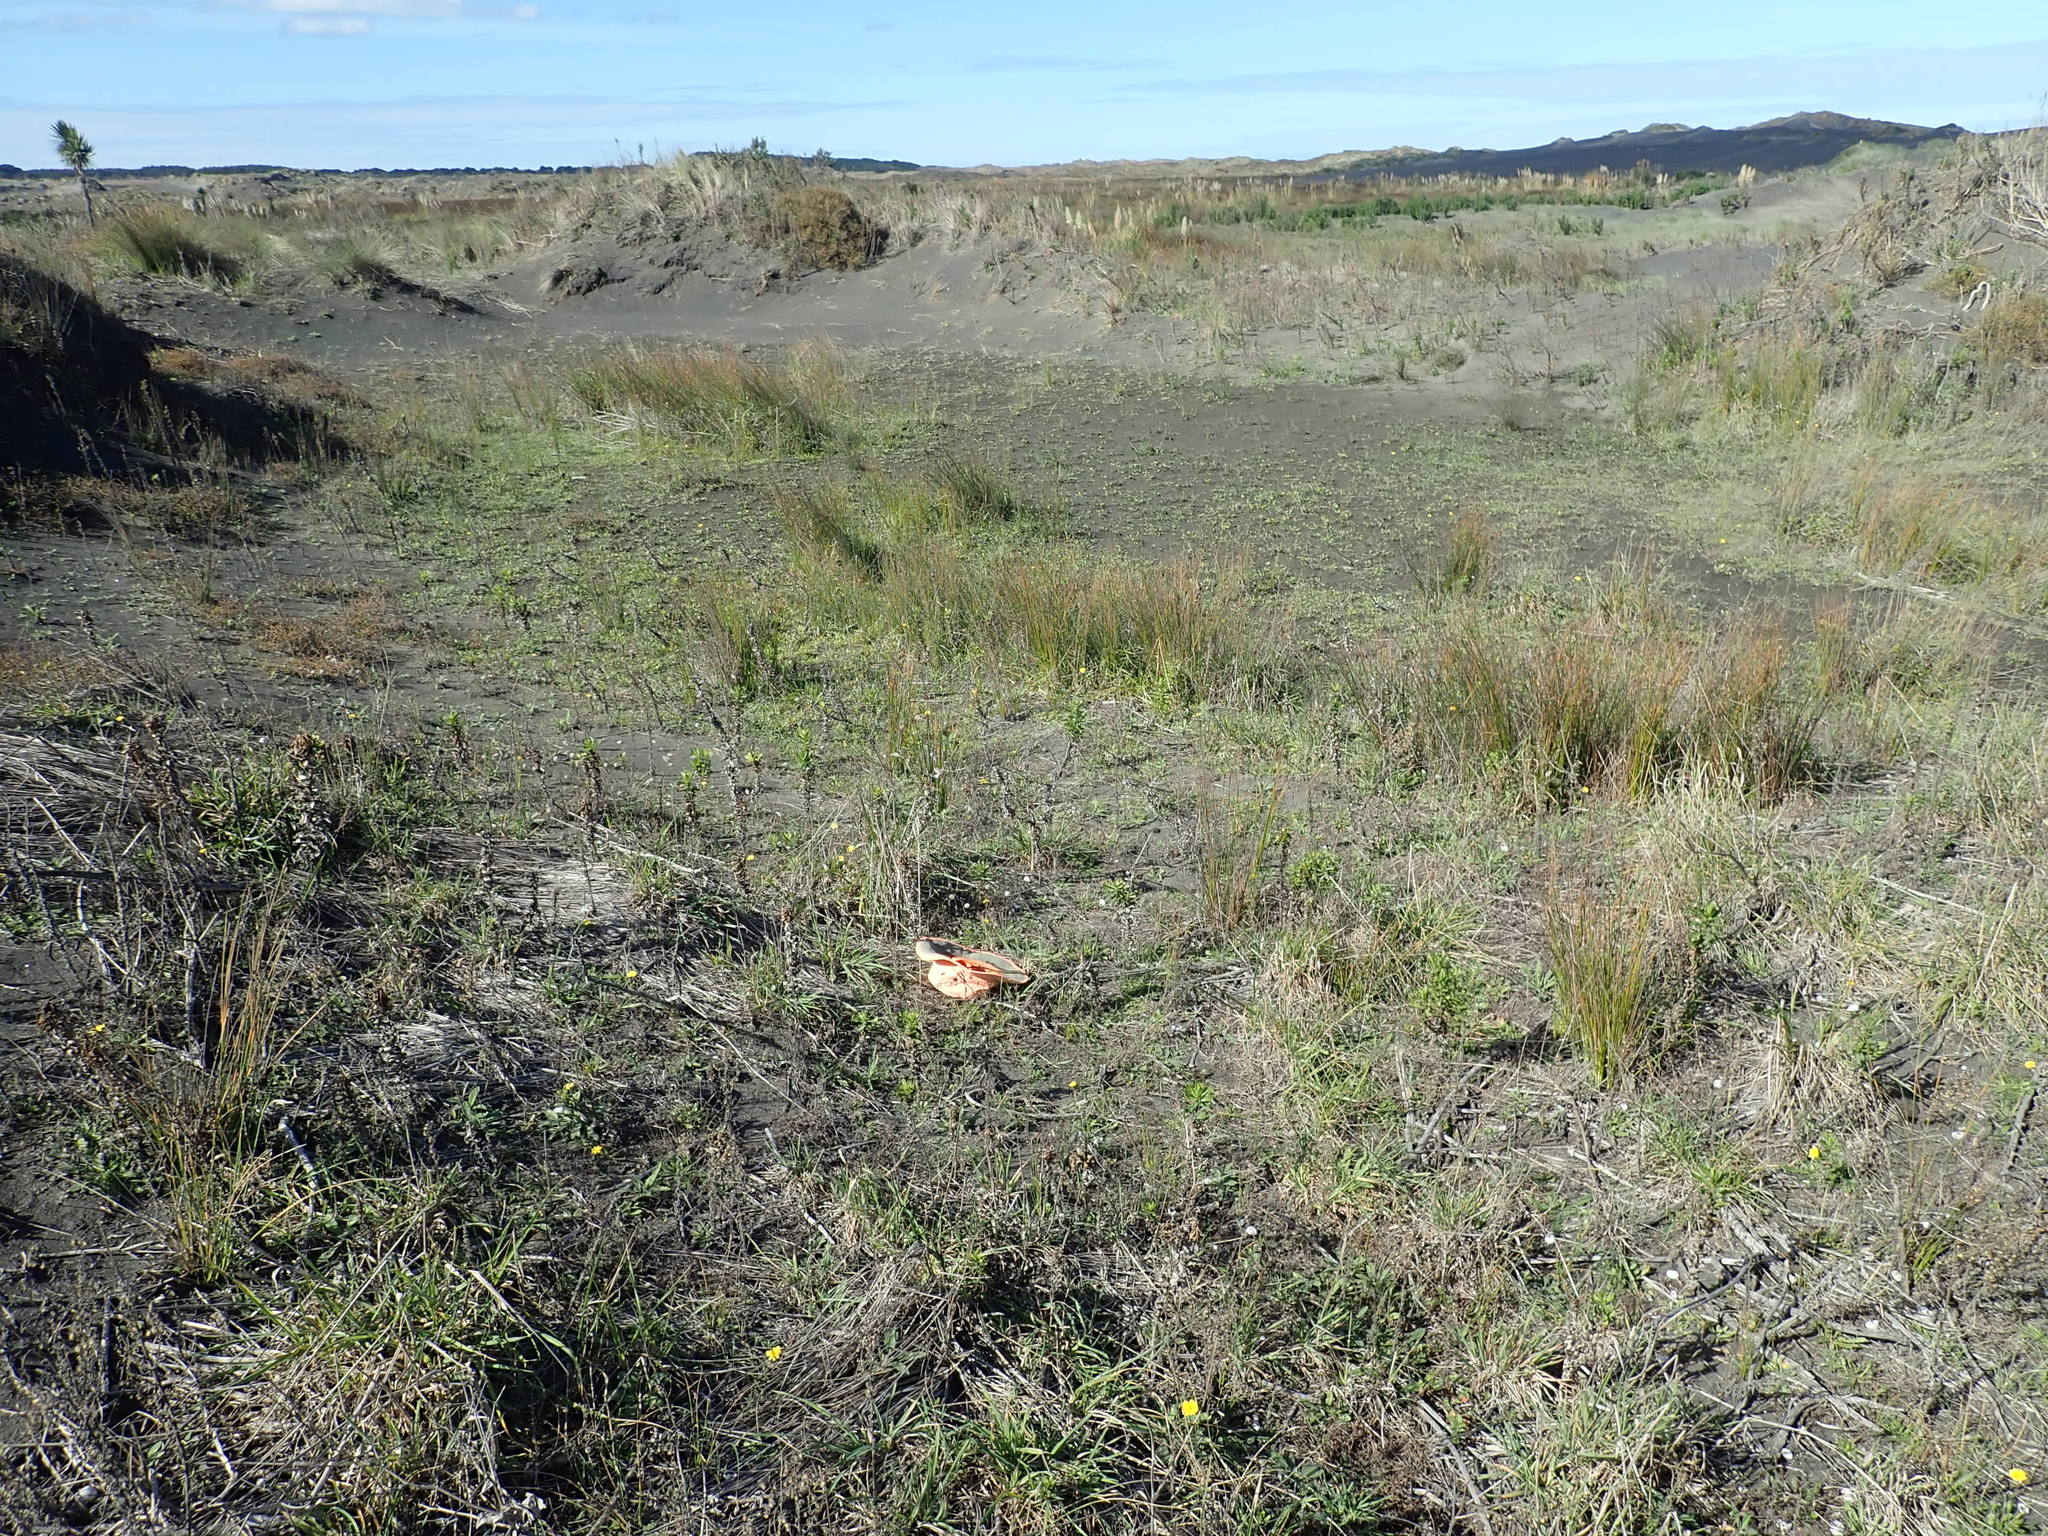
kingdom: Plantae
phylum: Tracheophyta
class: Magnoliopsida
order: Rosales
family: Rosaceae
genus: Acaena
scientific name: Acaena novae-zelandiae
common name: Pirri-pirri-bur
